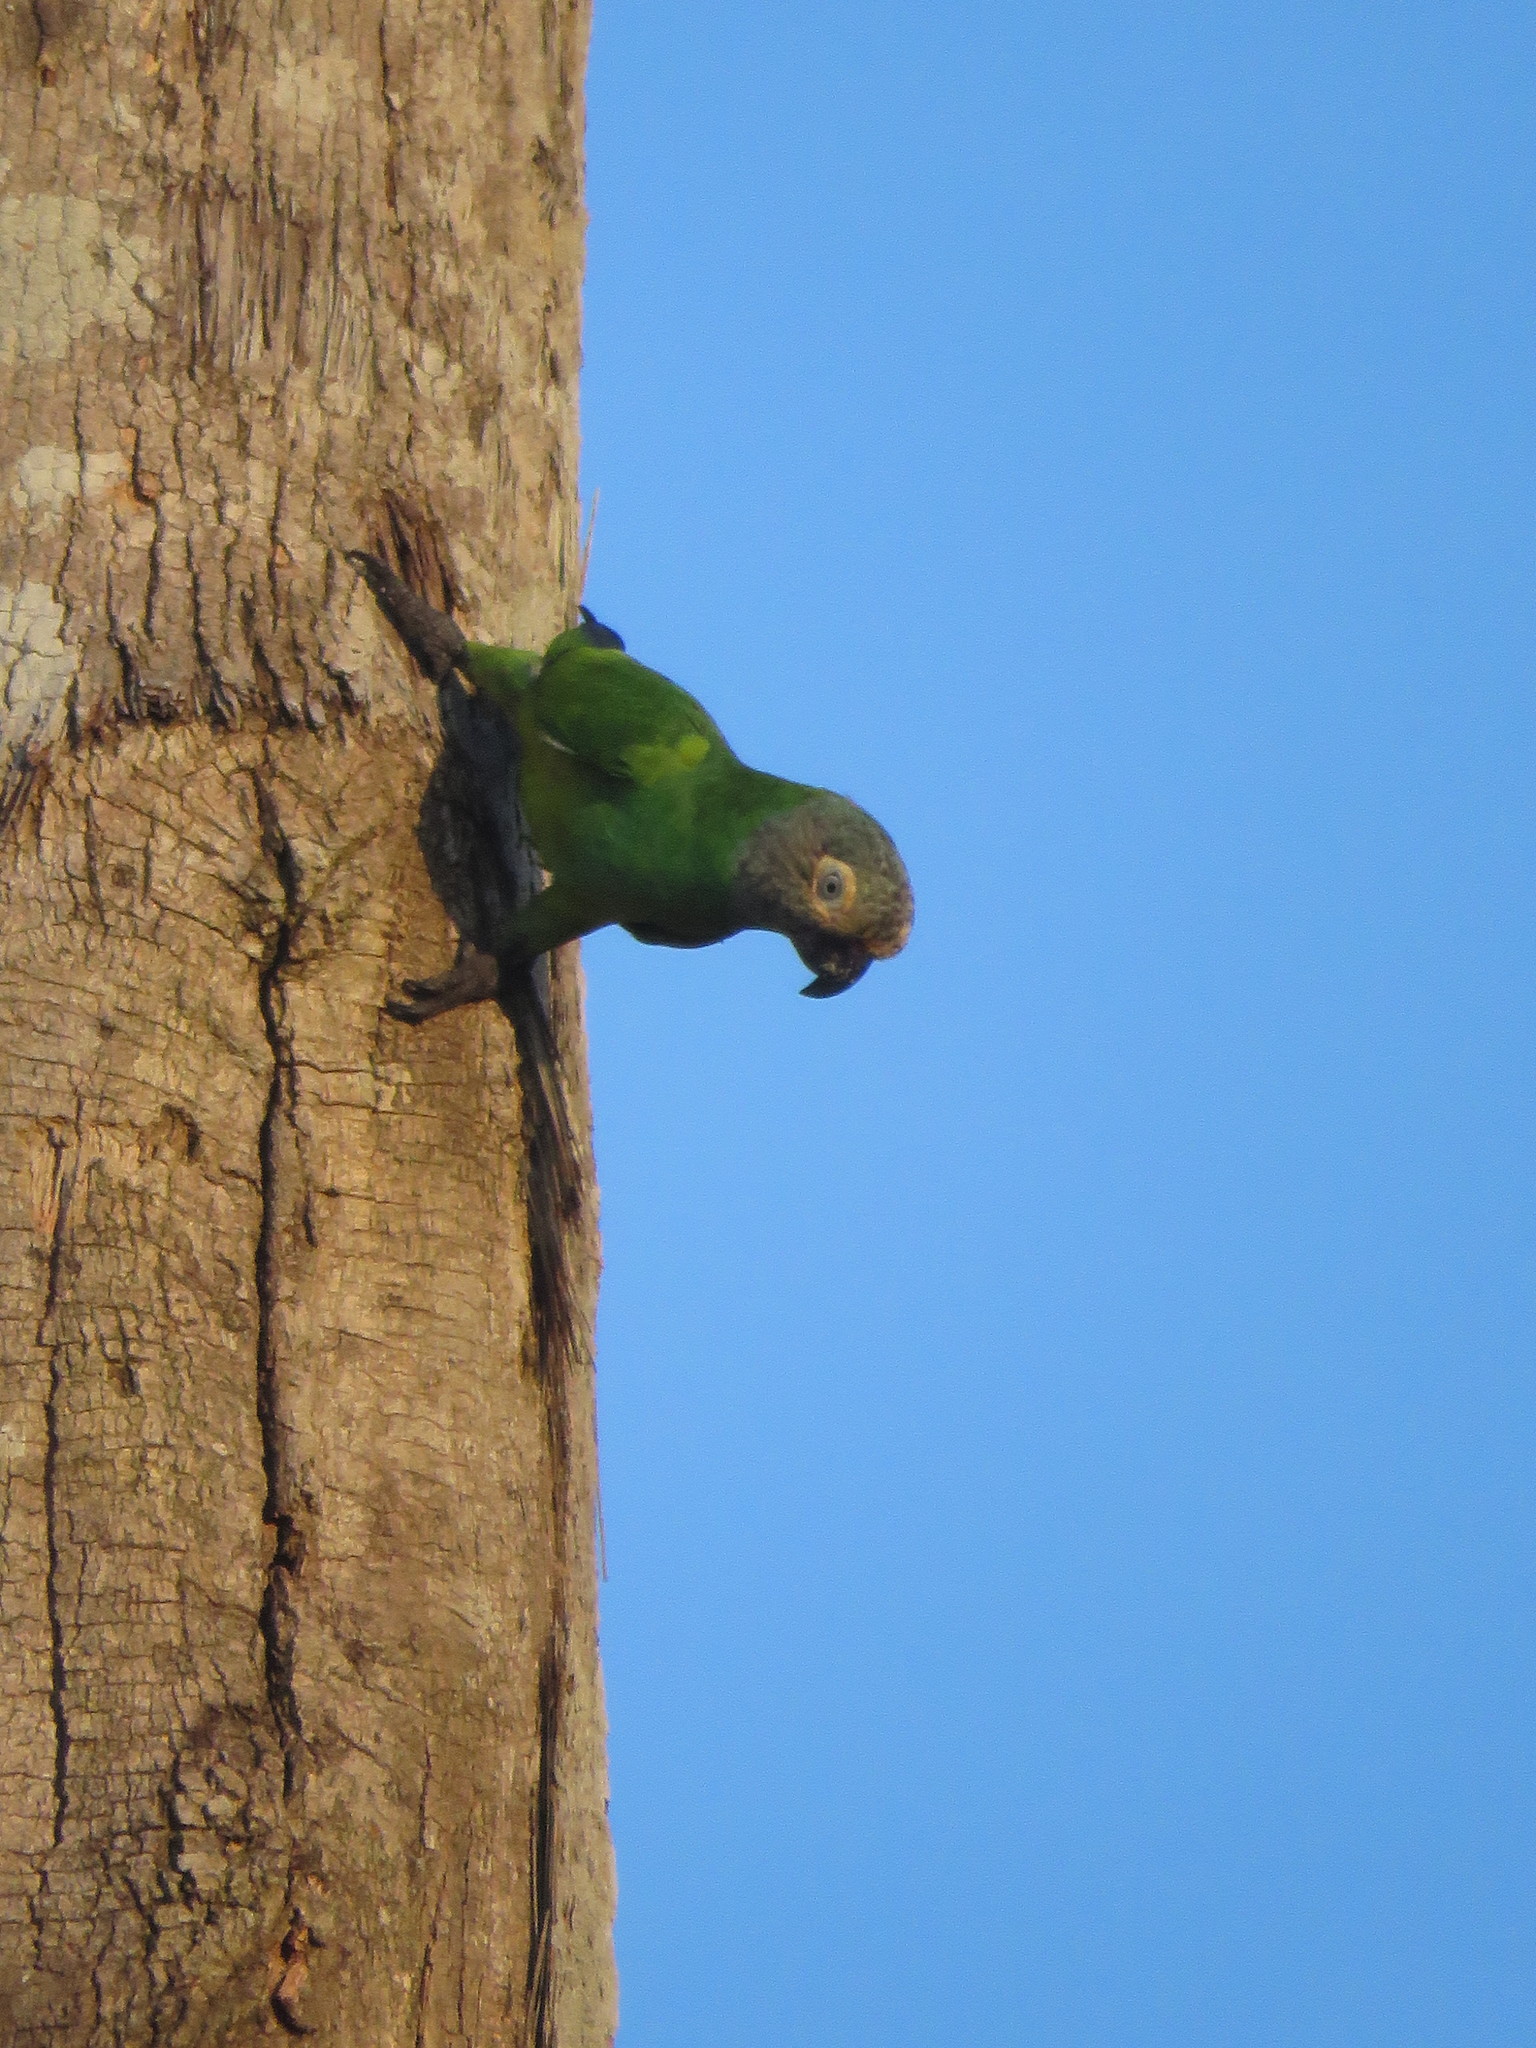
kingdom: Animalia
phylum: Chordata
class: Aves
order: Psittaciformes
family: Psittacidae
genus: Aratinga
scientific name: Aratinga weddellii
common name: Dusky-headed parakeet
